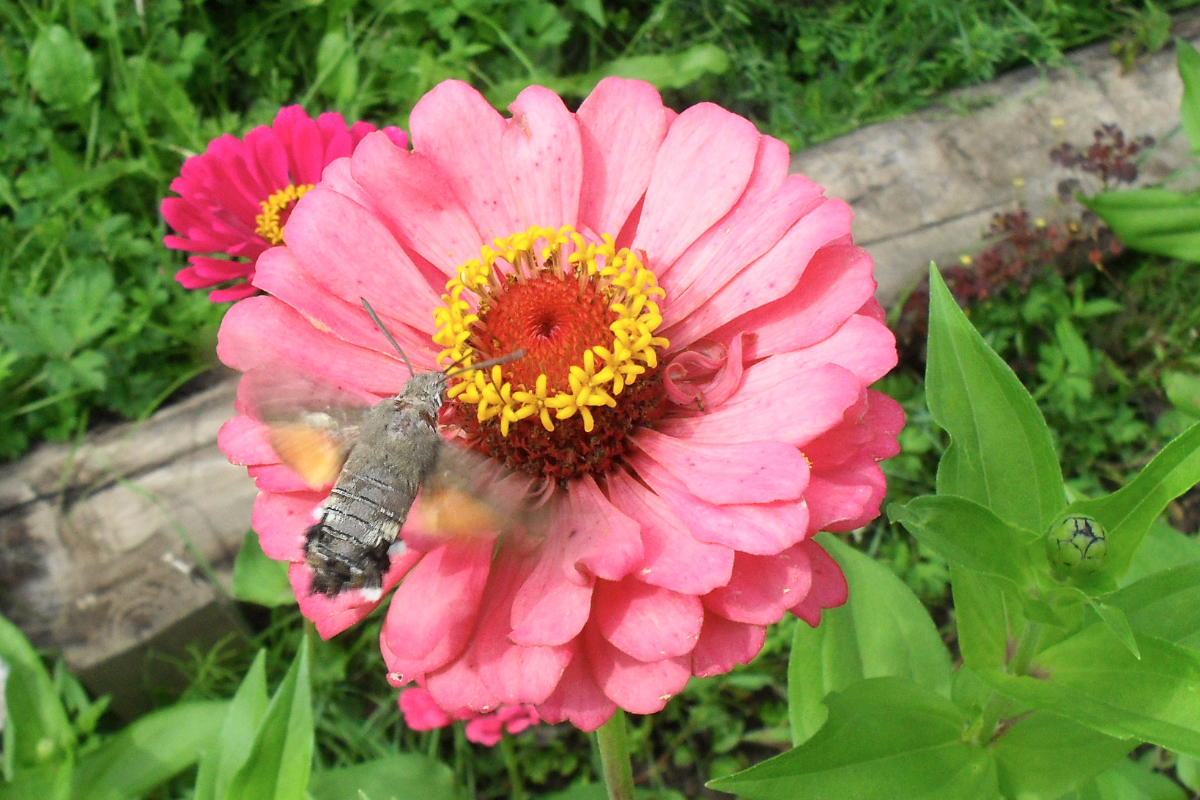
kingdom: Animalia
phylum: Arthropoda
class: Insecta
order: Lepidoptera
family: Sphingidae
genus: Macroglossum
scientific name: Macroglossum stellatarum
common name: Humming-bird hawk-moth
